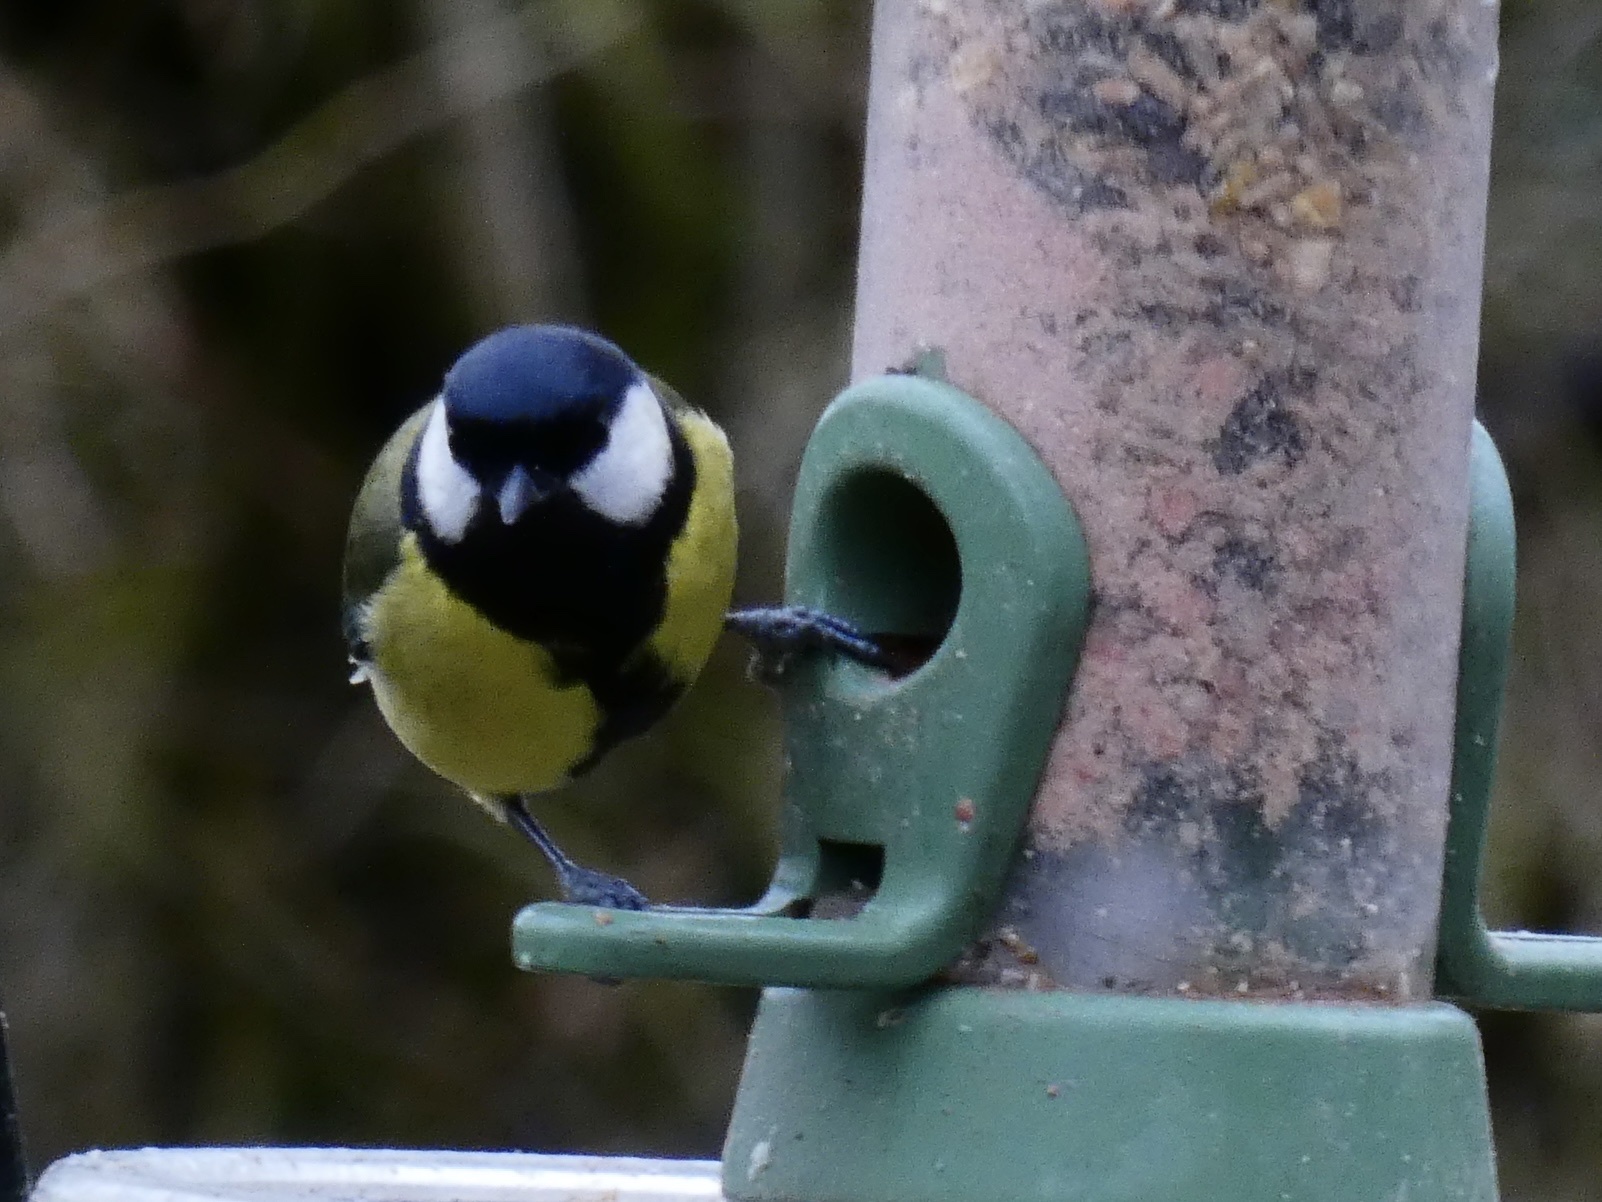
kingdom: Animalia
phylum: Chordata
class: Aves
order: Passeriformes
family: Paridae
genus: Parus
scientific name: Parus major
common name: Great tit
